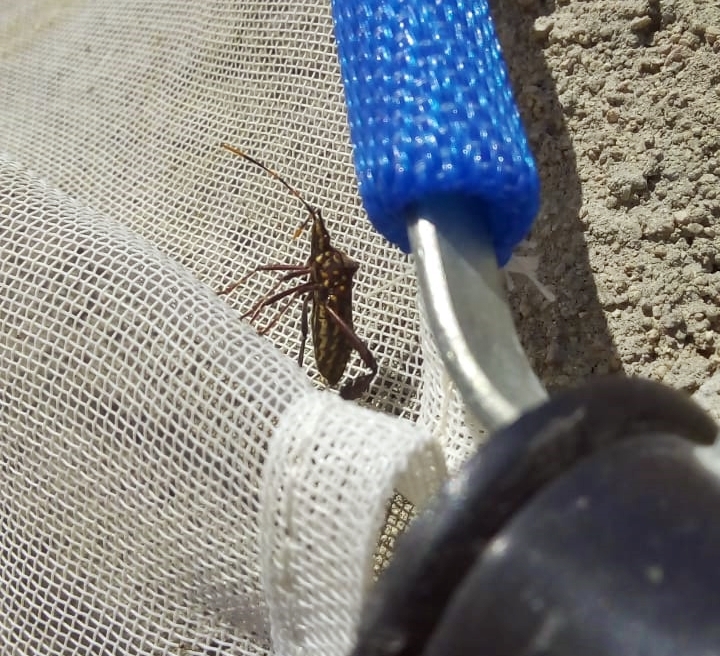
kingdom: Animalia
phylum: Arthropoda
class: Insecta
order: Hemiptera
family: Coreidae
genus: Leptoglossus
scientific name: Leptoglossus gonagra
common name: Citron bug
